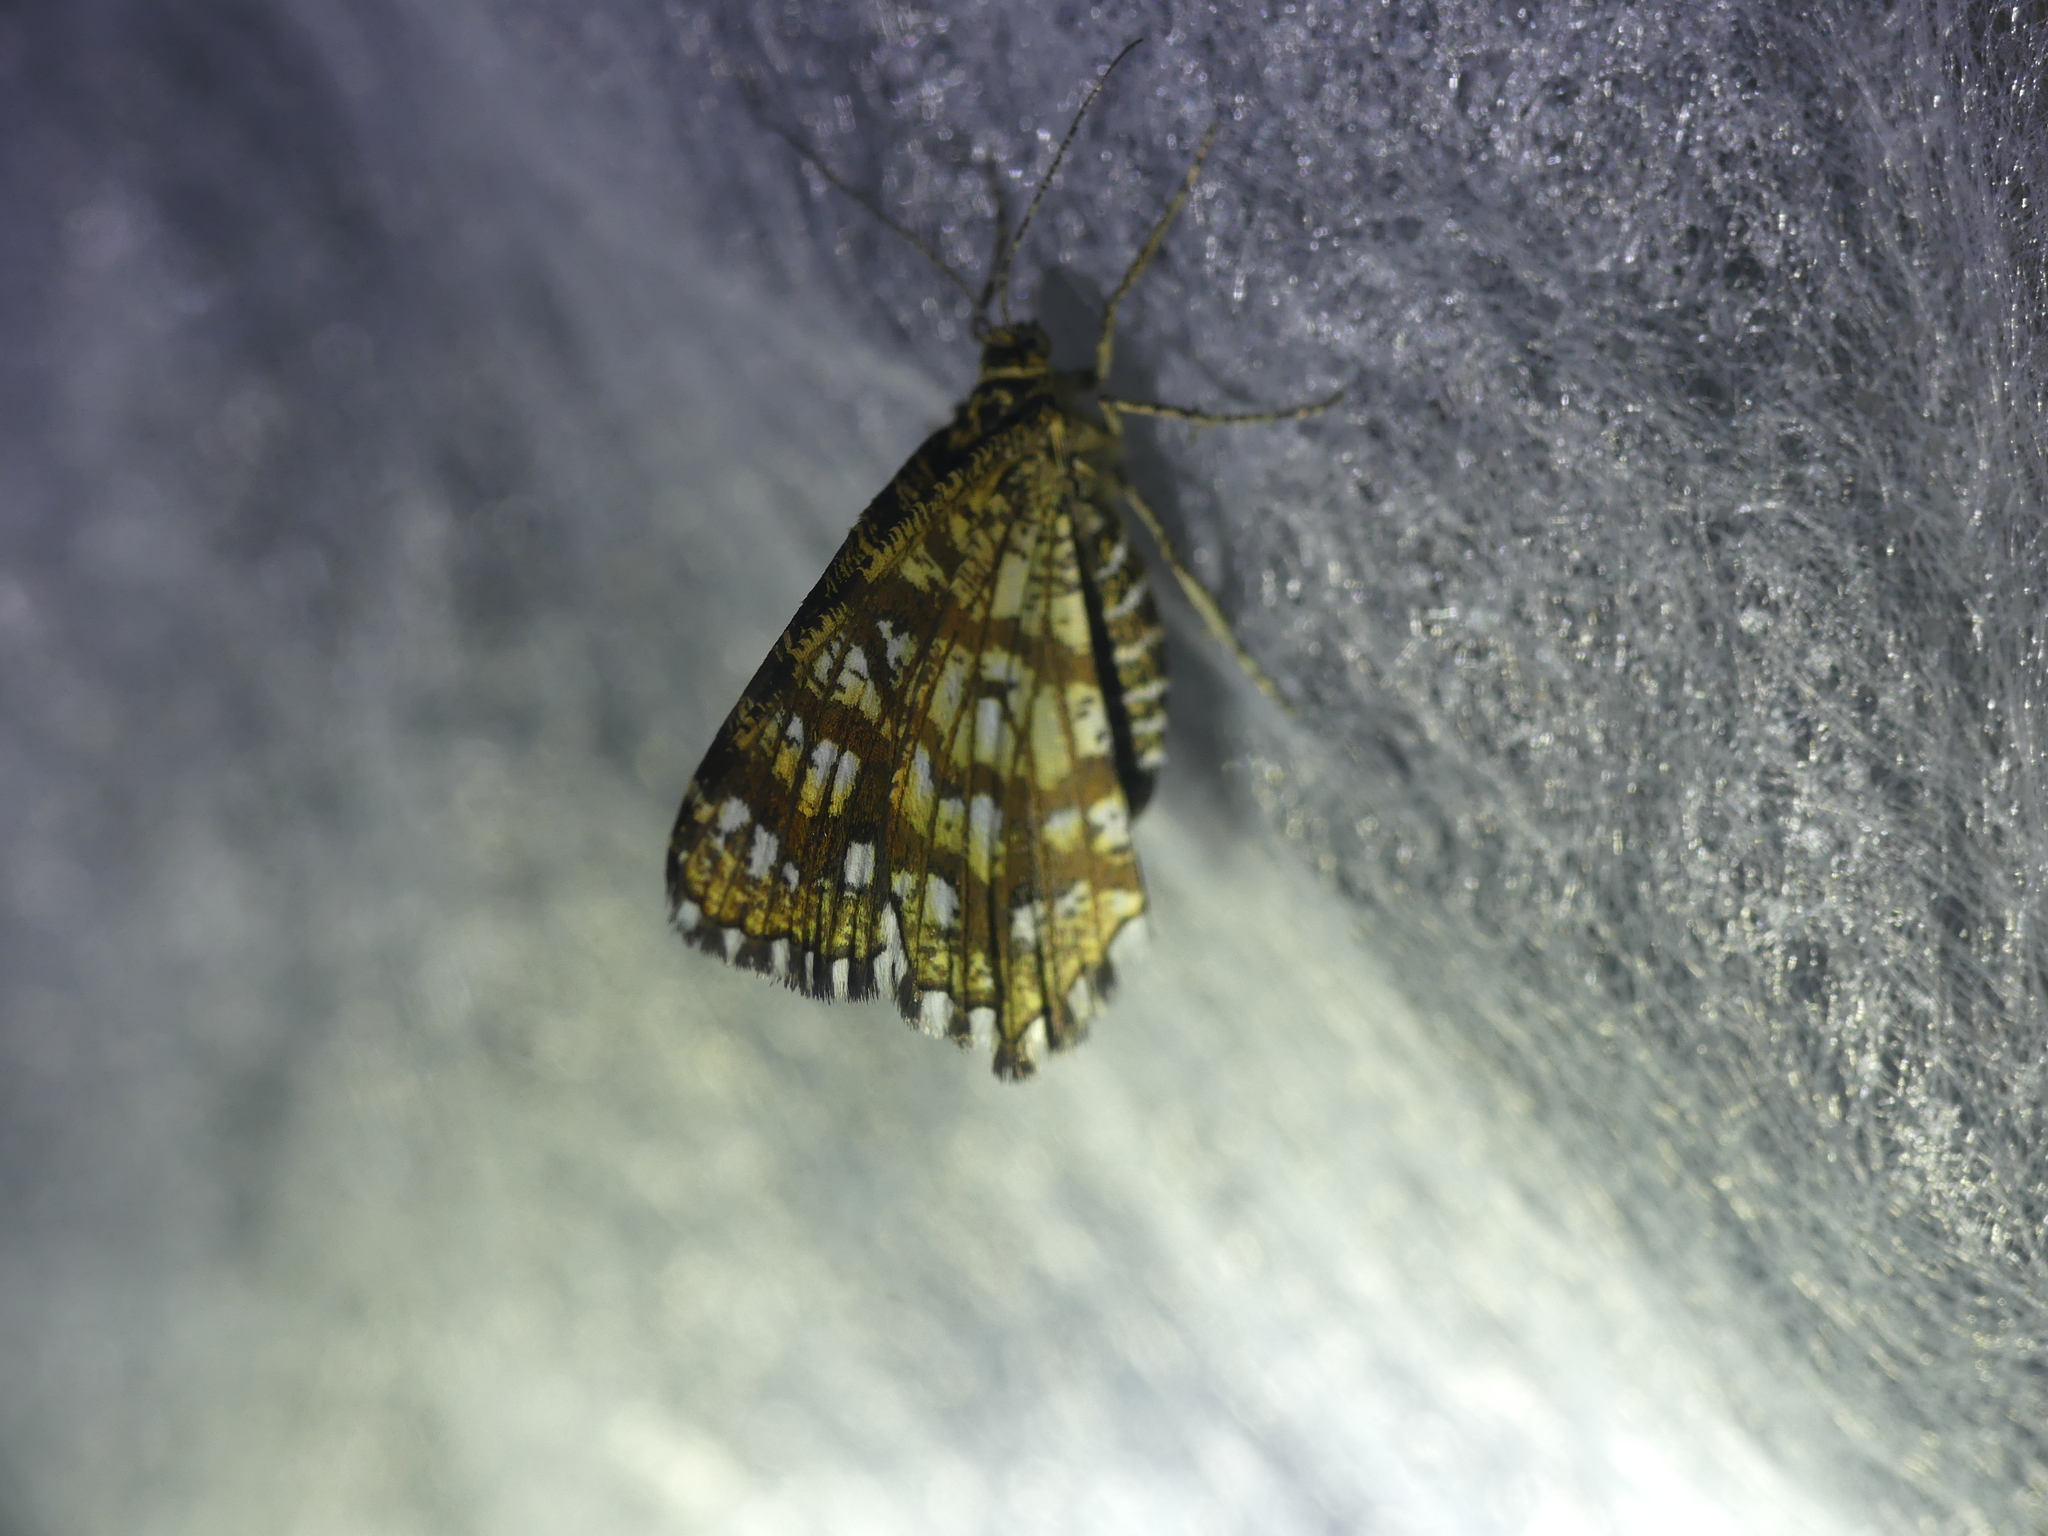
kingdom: Animalia
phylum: Arthropoda
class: Insecta
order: Lepidoptera
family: Geometridae
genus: Chiasmia
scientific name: Chiasmia clathrata
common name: Latticed heath
